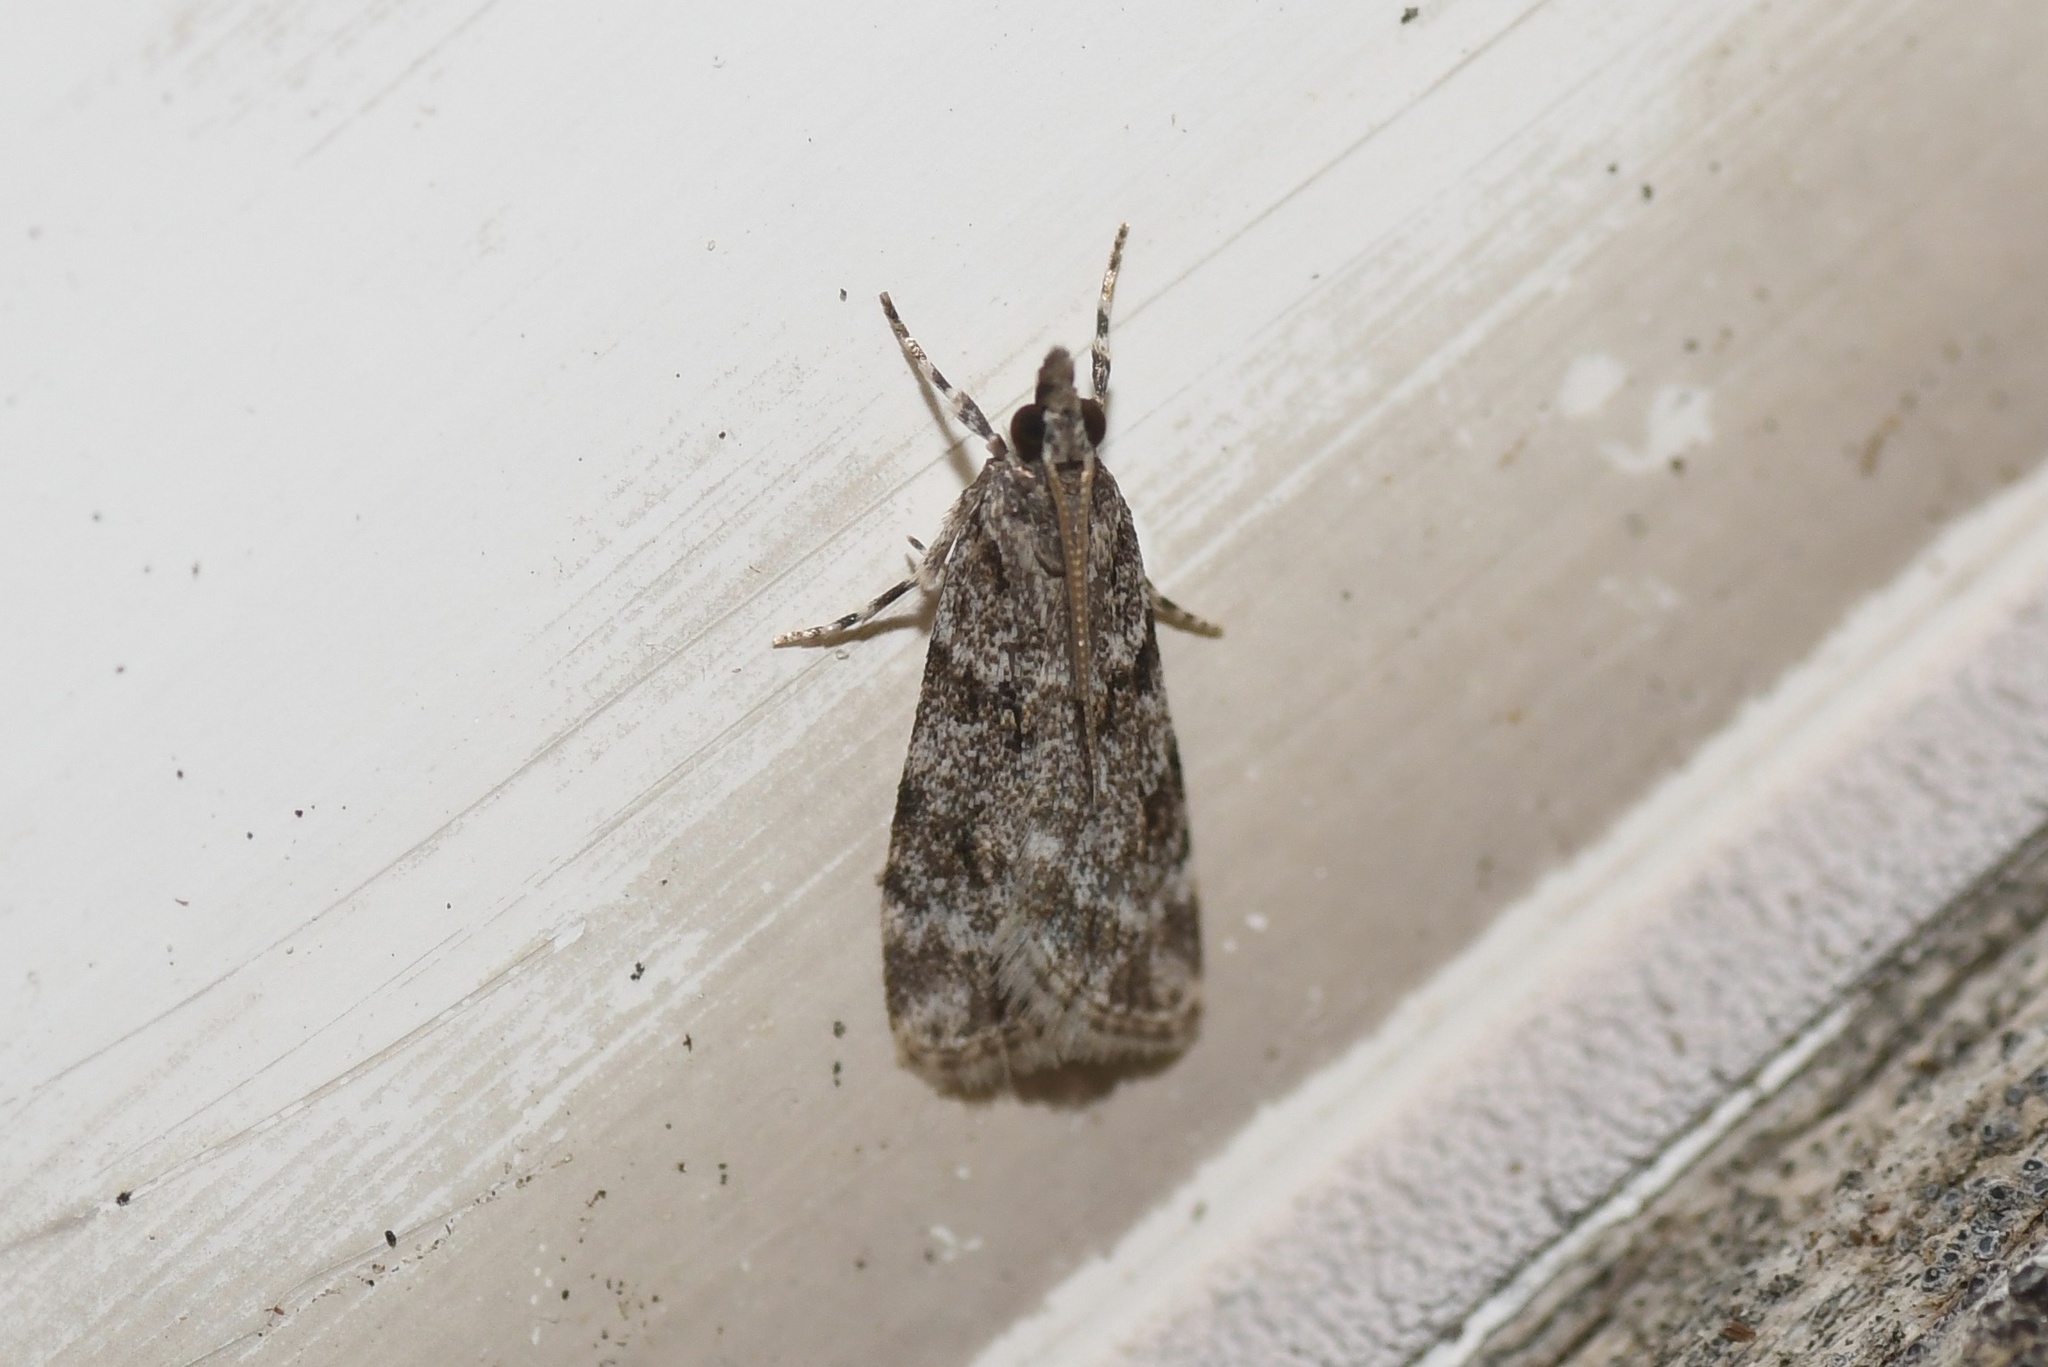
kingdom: Animalia
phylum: Arthropoda
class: Insecta
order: Lepidoptera
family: Crambidae
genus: Scoparia
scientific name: Scoparia biplagialis
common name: Double-striped scoparia moth
